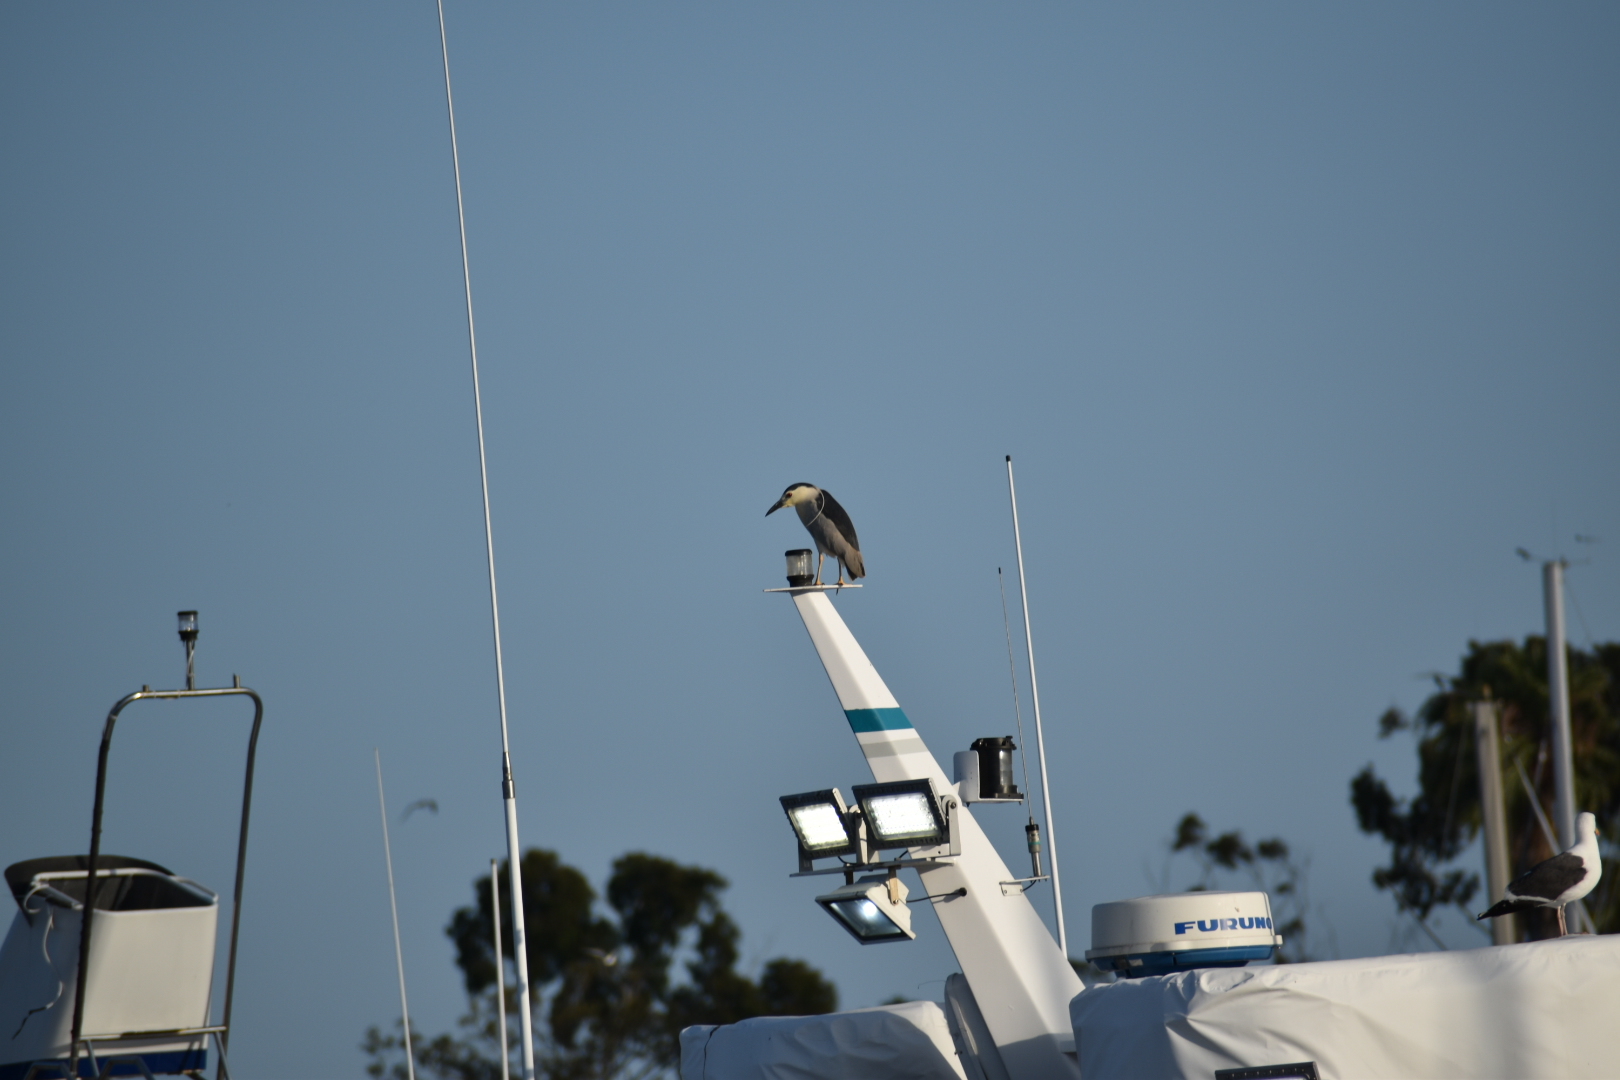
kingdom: Animalia
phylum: Chordata
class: Aves
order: Pelecaniformes
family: Ardeidae
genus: Nycticorax
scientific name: Nycticorax nycticorax
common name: Black-crowned night heron
